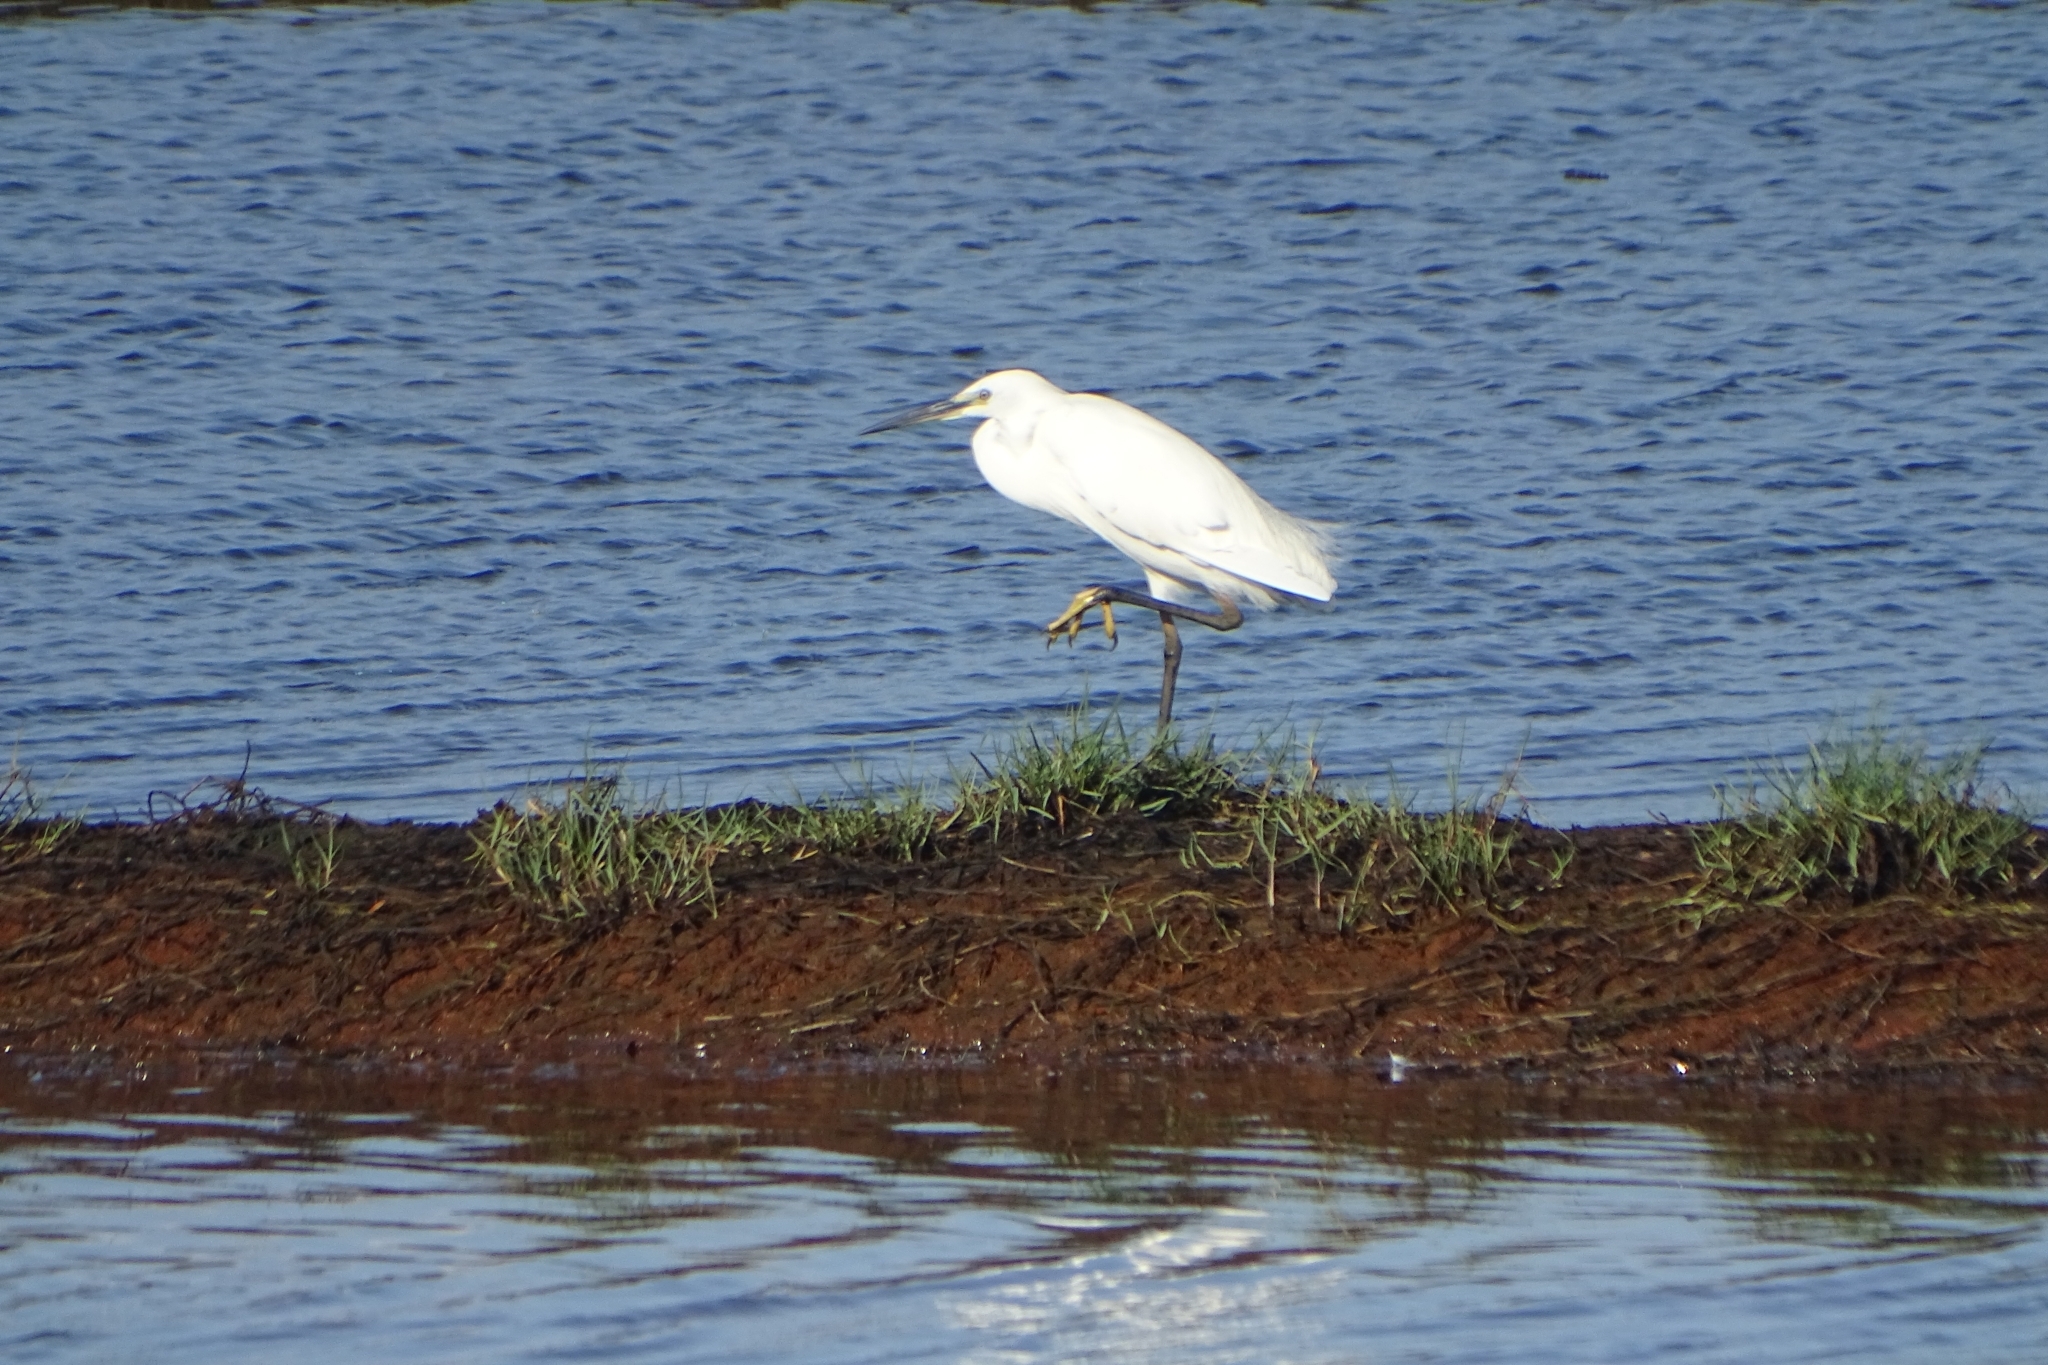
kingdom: Animalia
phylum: Chordata
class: Aves
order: Pelecaniformes
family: Ardeidae
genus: Egretta
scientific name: Egretta garzetta
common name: Little egret
